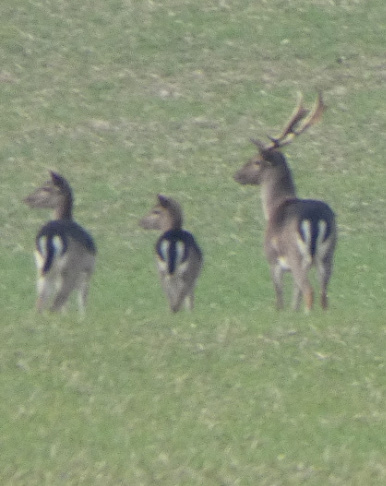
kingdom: Animalia
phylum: Chordata
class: Mammalia
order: Artiodactyla
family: Cervidae
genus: Dama
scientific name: Dama dama
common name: Fallow deer
